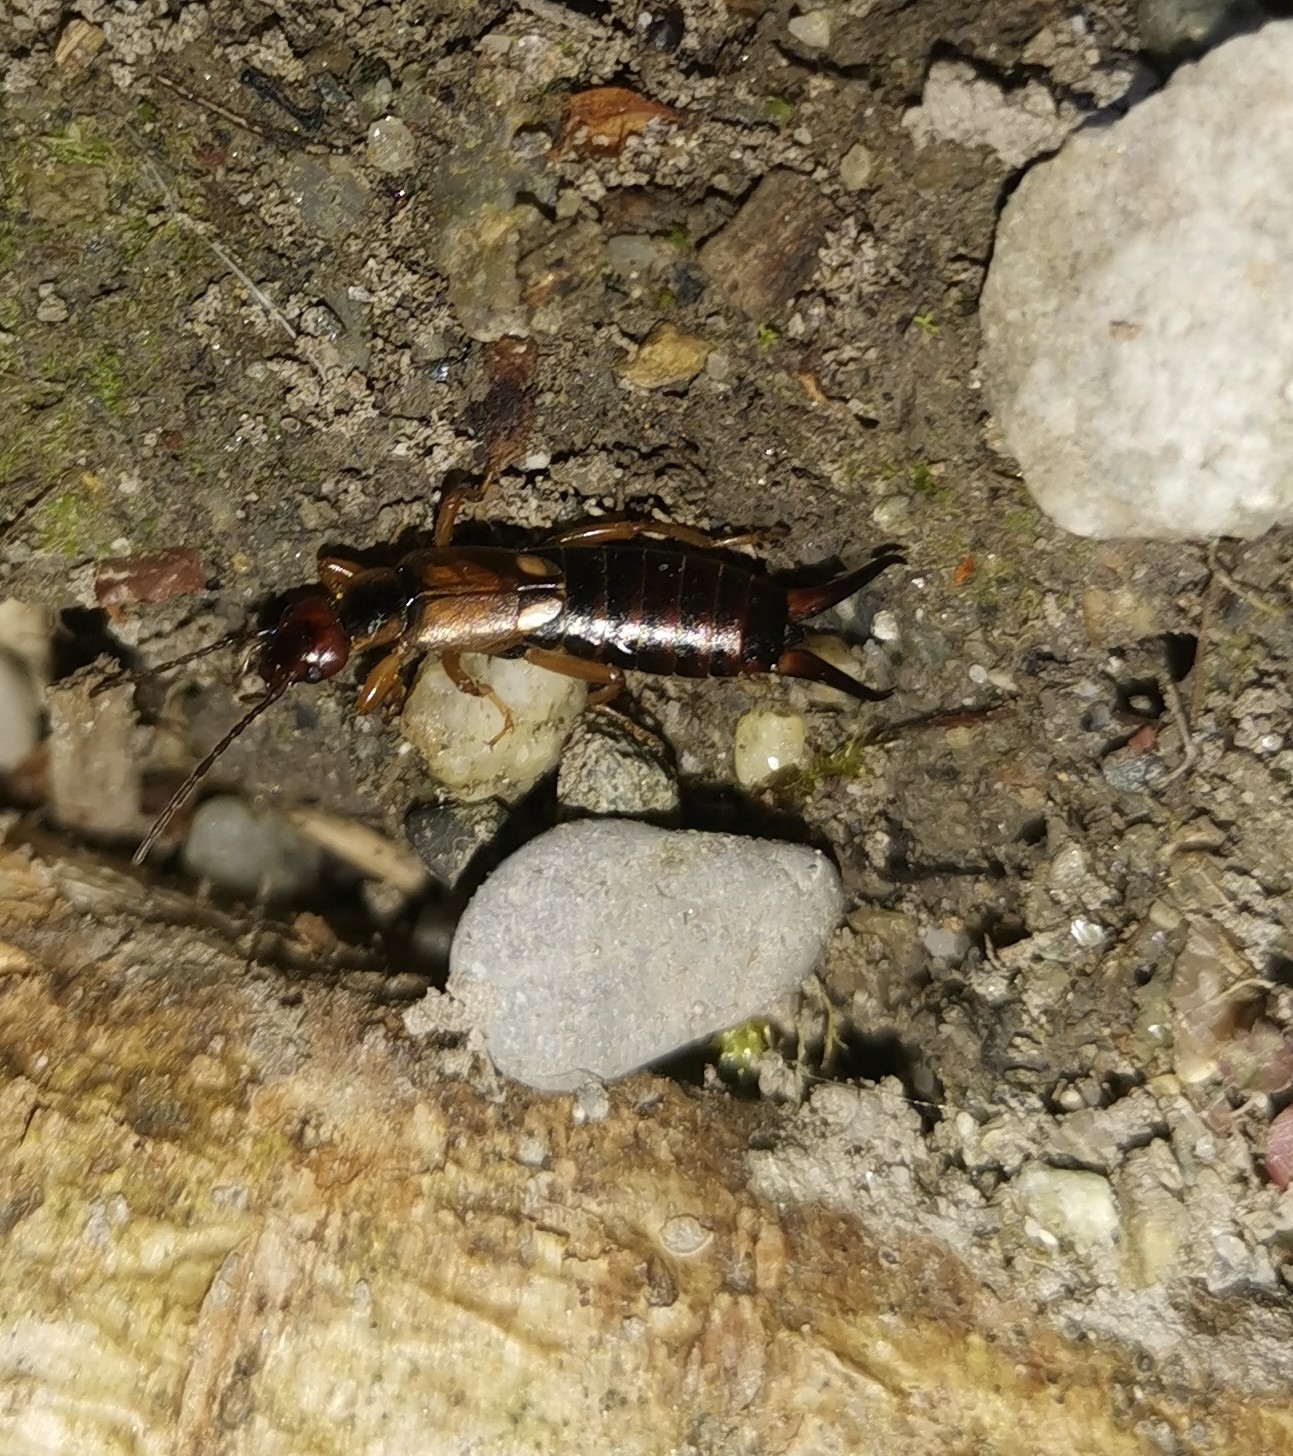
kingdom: Animalia
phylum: Arthropoda
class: Insecta
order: Dermaptera
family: Forficulidae
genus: Forficula
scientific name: Forficula
